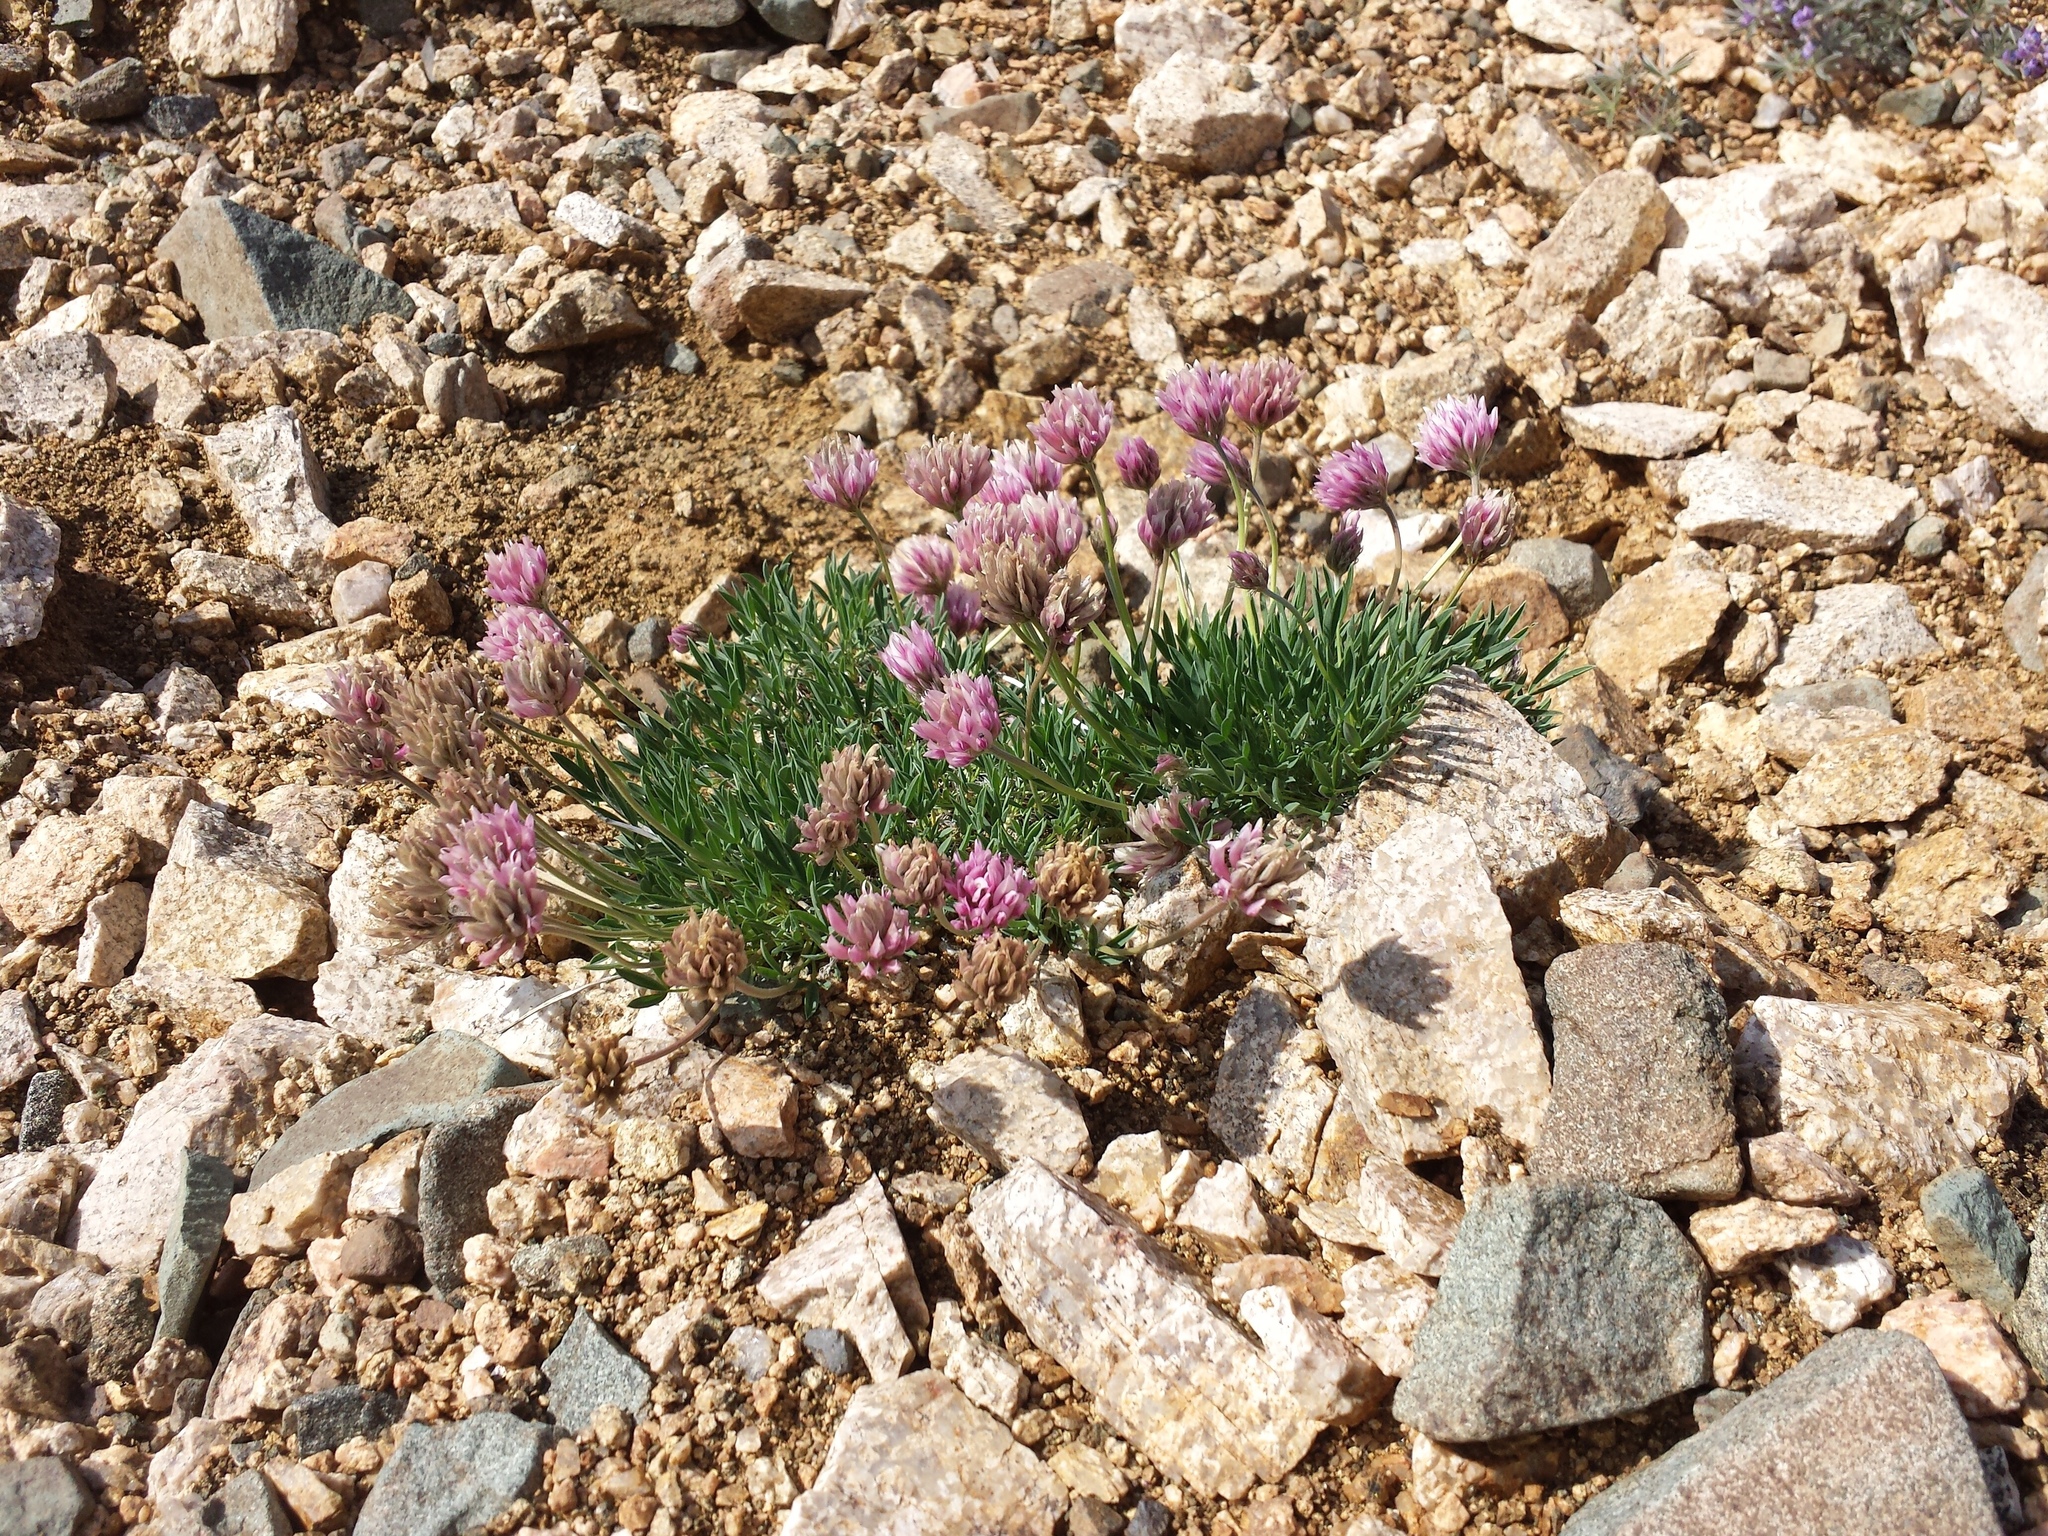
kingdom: Plantae
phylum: Tracheophyta
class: Magnoliopsida
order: Fabales
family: Fabaceae
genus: Trifolium
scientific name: Trifolium dasyphyllum
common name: Whip-root clover
